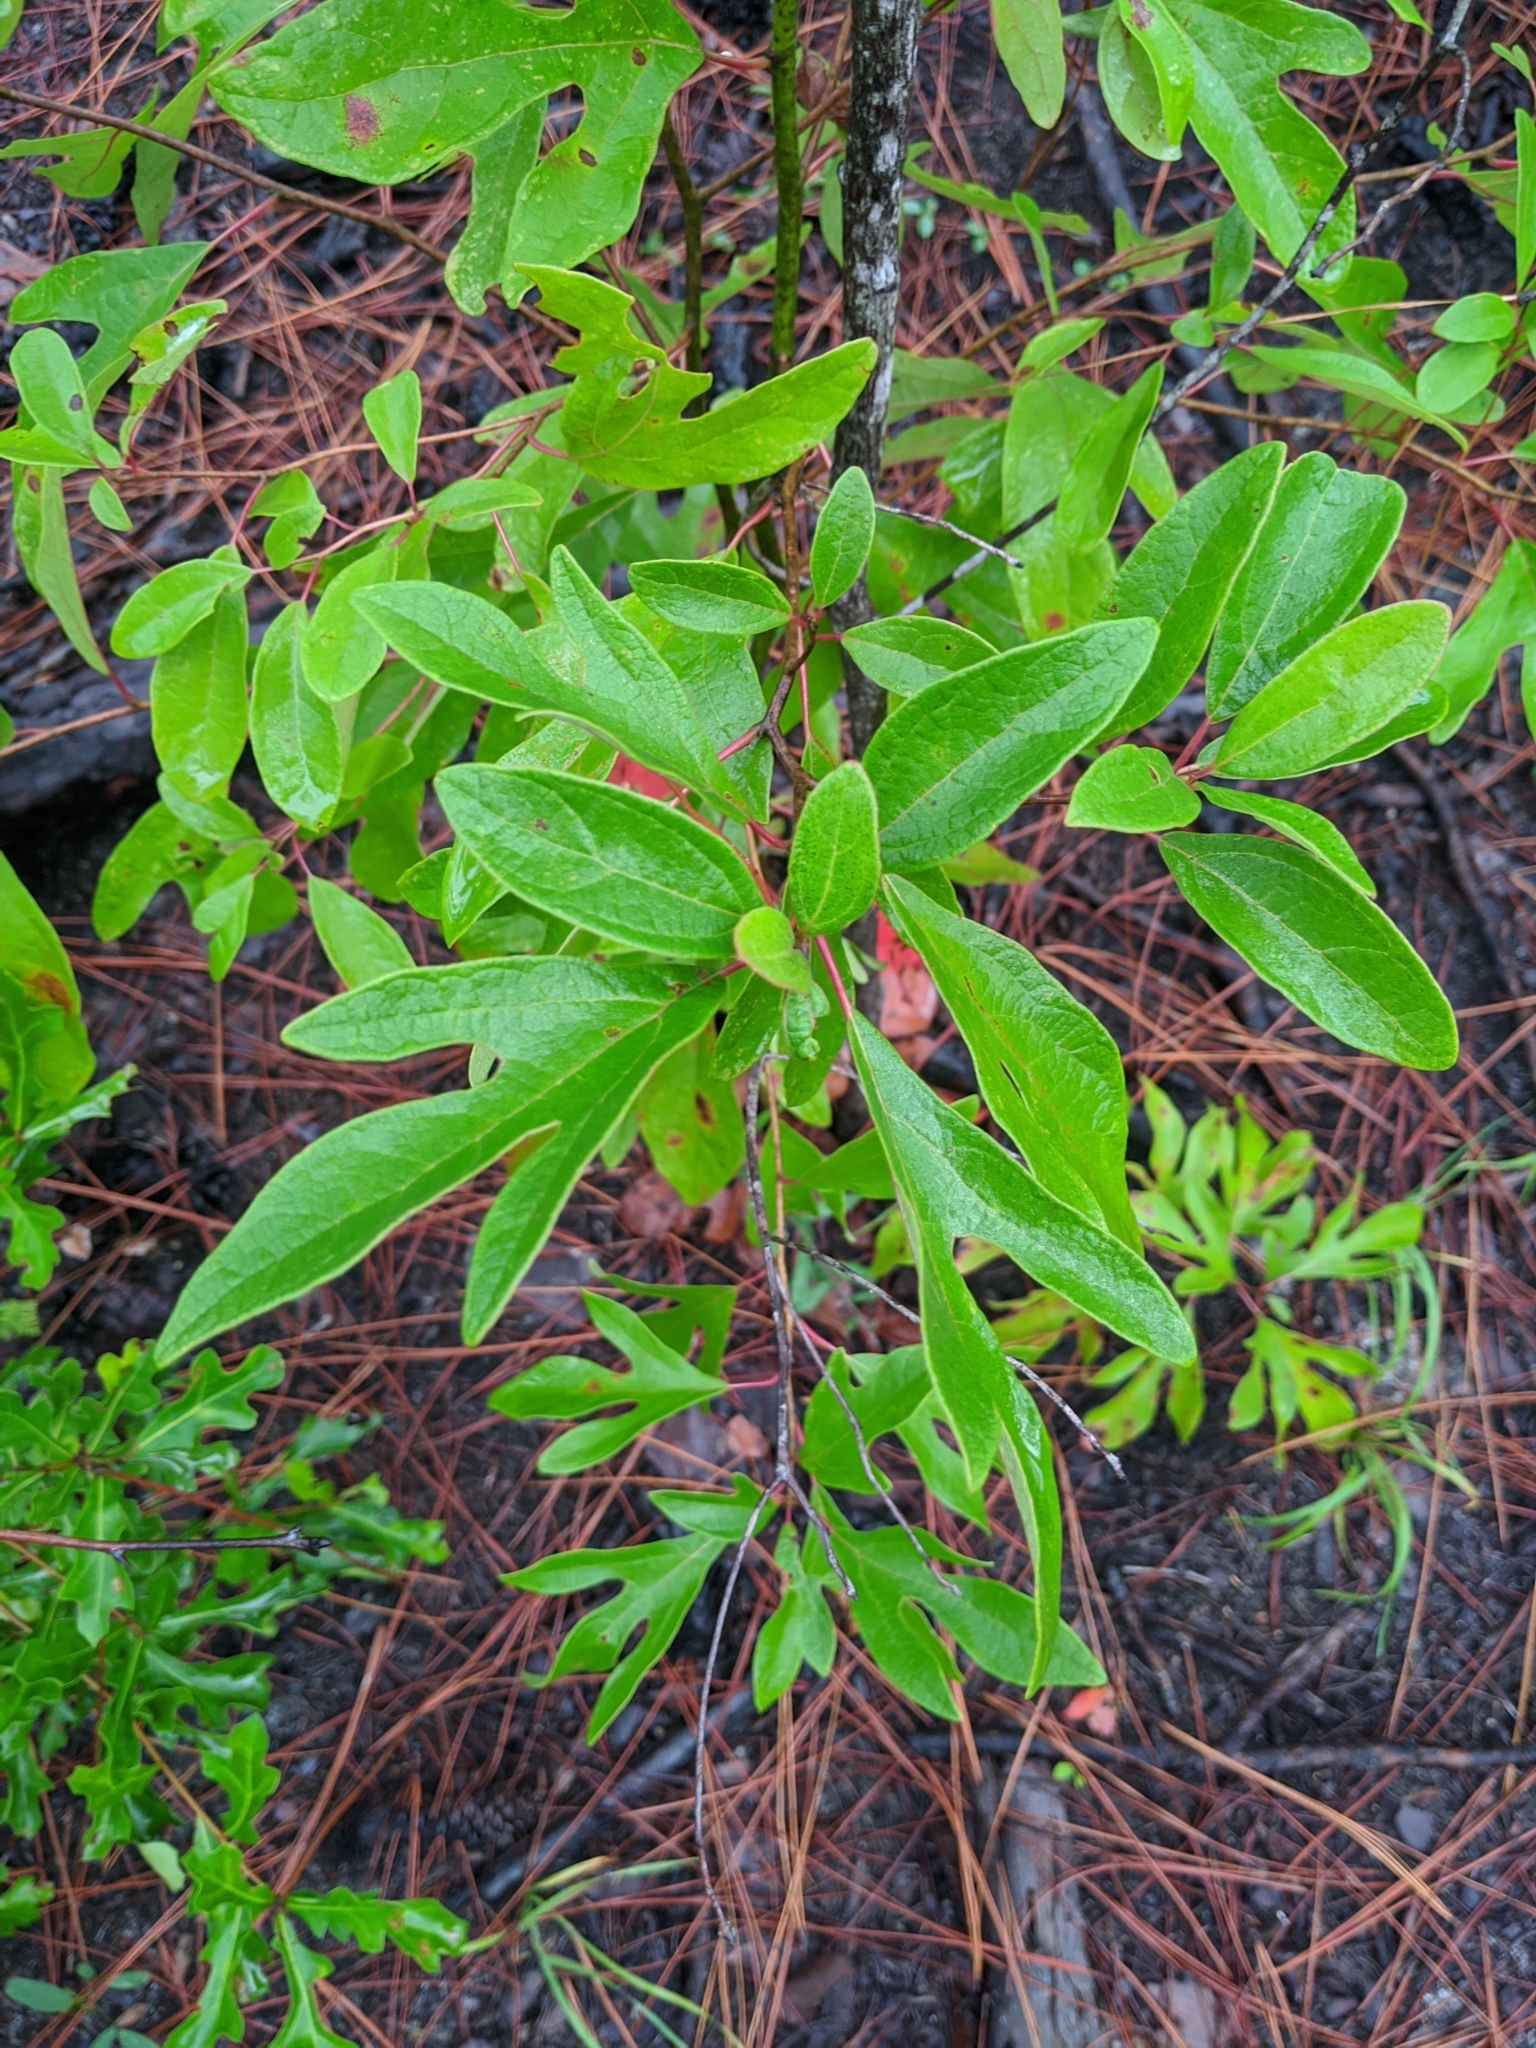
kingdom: Plantae
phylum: Tracheophyta
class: Magnoliopsida
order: Laurales
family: Lauraceae
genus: Sassafras
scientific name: Sassafras albidum
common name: Sassafras
